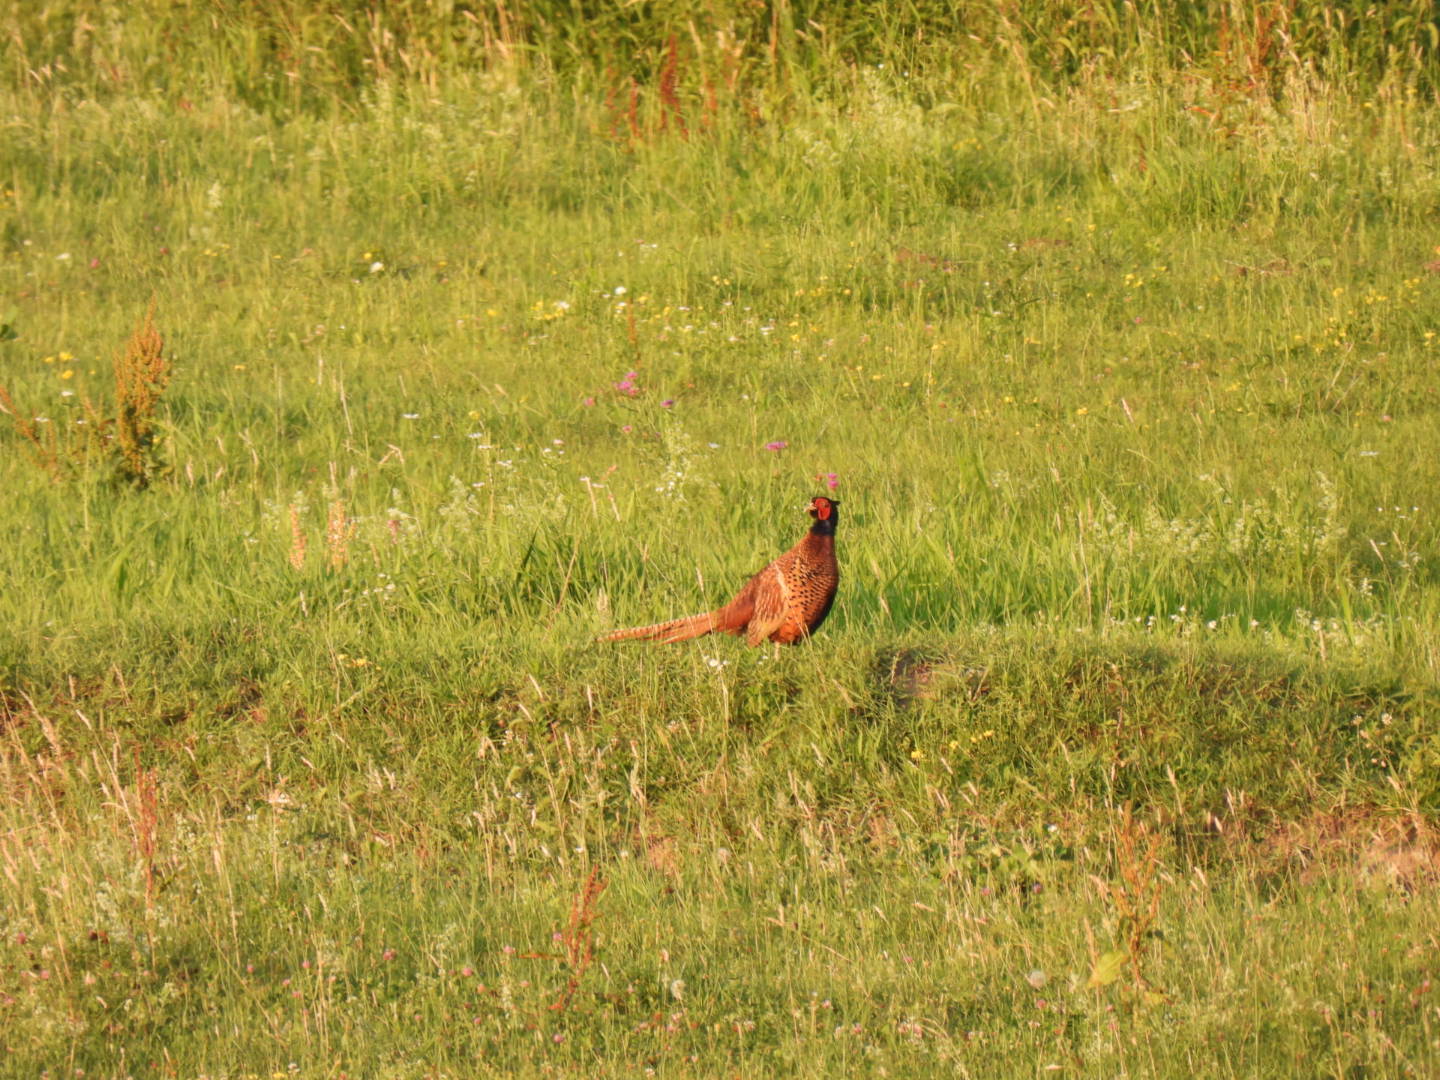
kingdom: Animalia
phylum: Chordata
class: Aves
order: Galliformes
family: Phasianidae
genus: Phasianus
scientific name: Phasianus colchicus
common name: Common pheasant
